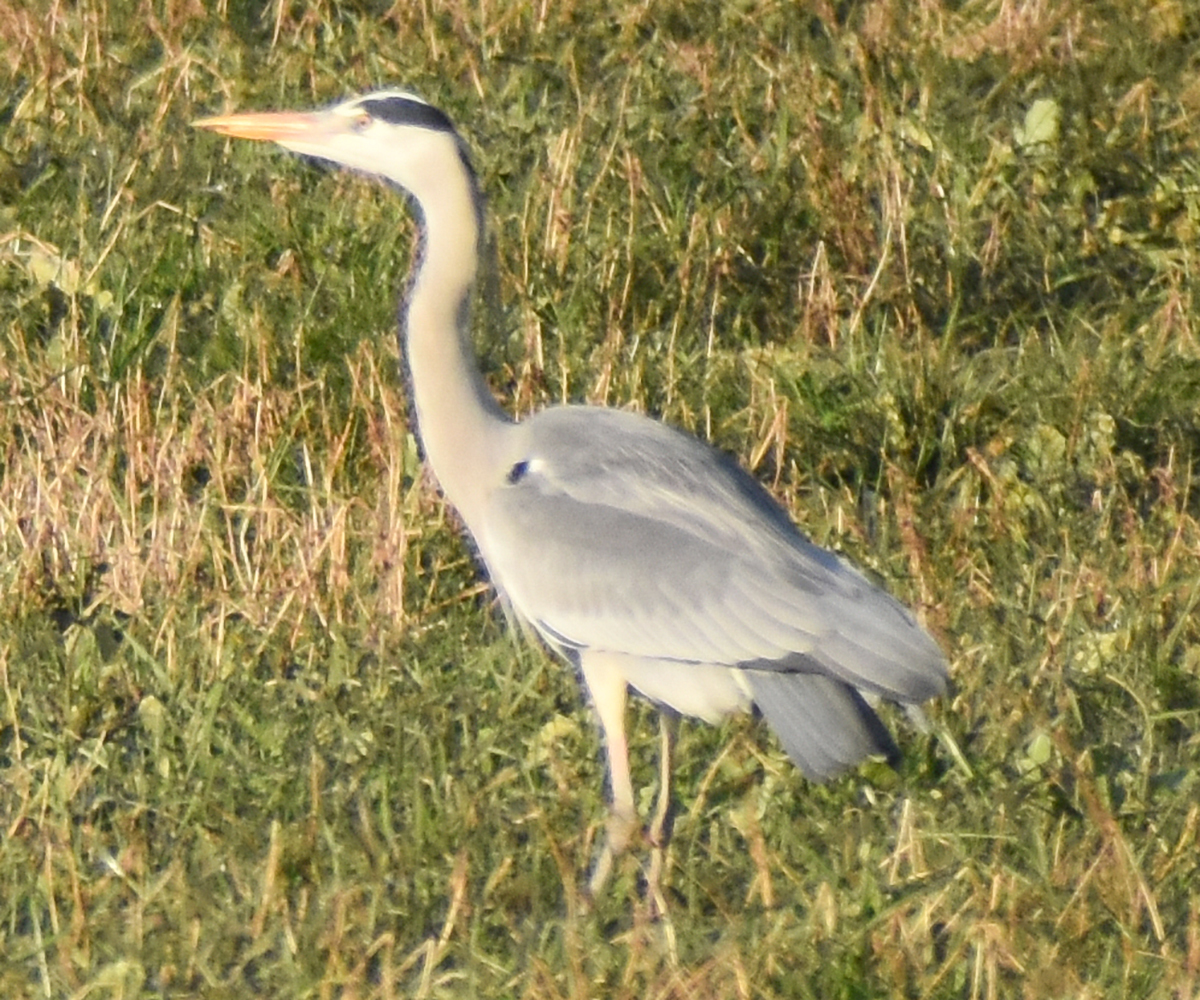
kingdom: Animalia
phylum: Chordata
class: Aves
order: Pelecaniformes
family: Ardeidae
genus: Ardea
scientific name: Ardea cinerea
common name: Grey heron
